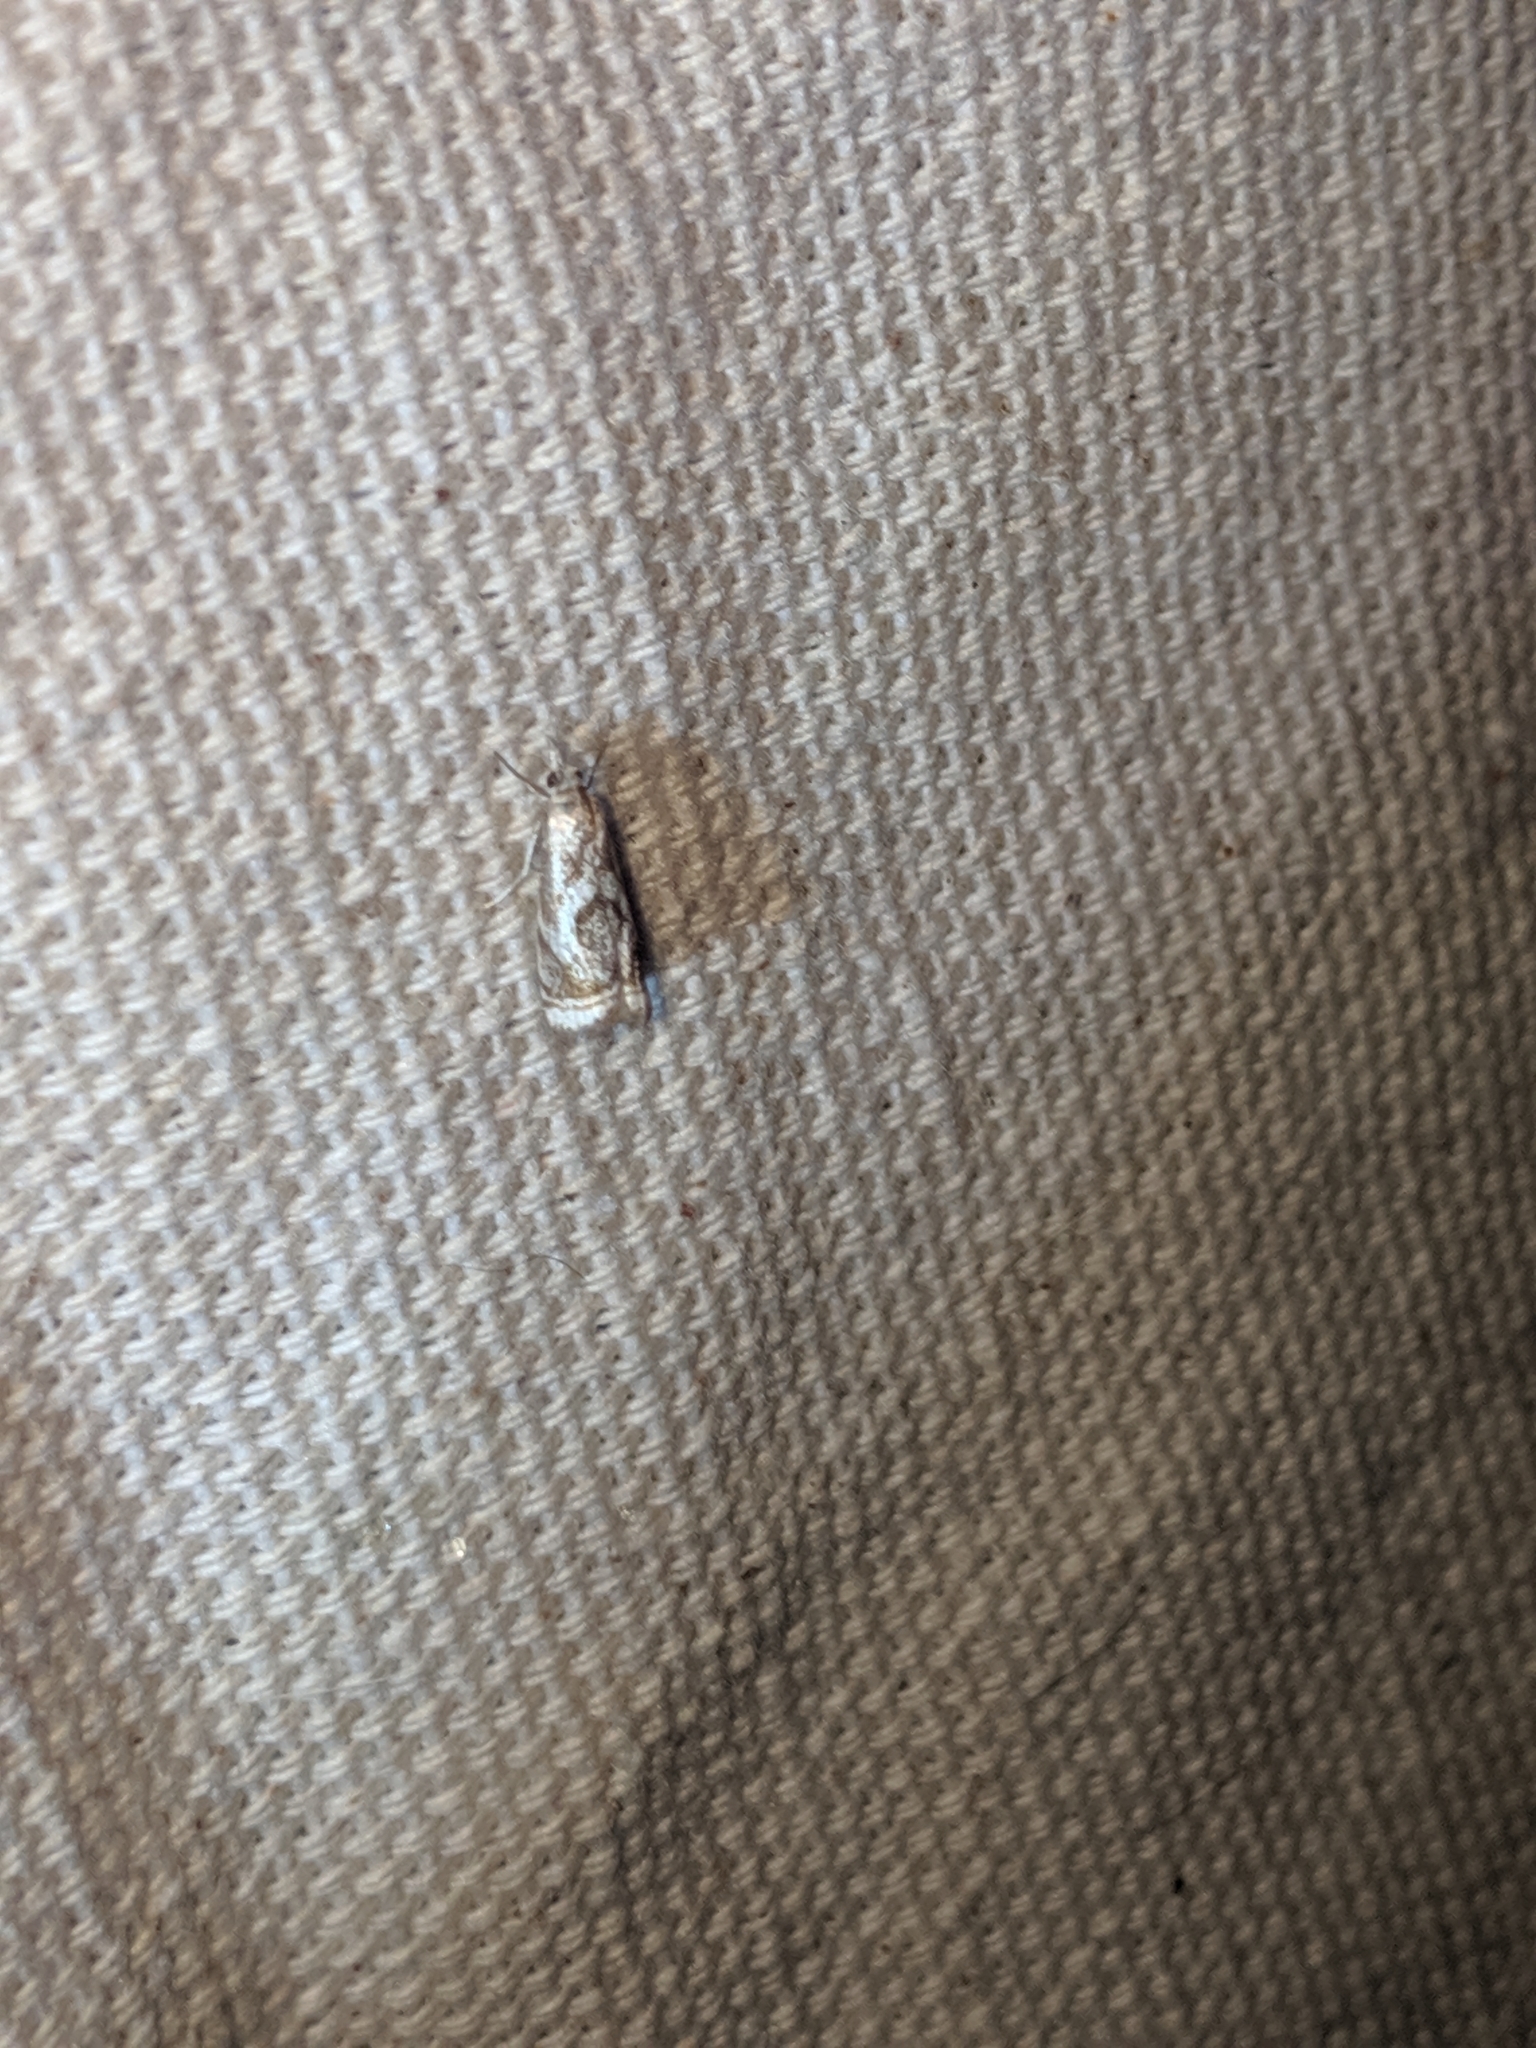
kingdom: Animalia
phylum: Arthropoda
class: Insecta
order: Lepidoptera
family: Crambidae
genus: Microcrambus
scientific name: Microcrambus elegans
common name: Elegant grass-veneer
